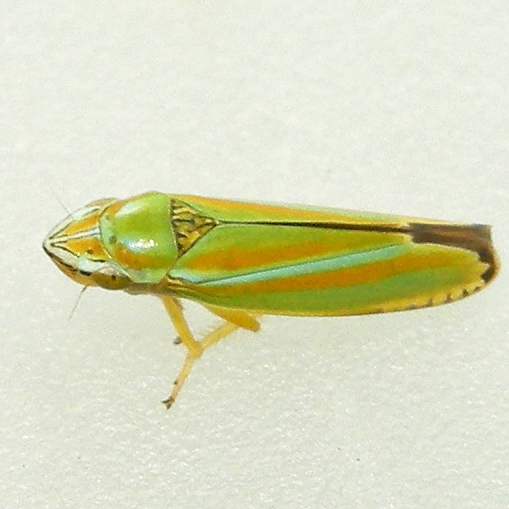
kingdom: Animalia
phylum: Arthropoda
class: Insecta
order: Hemiptera
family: Cicadellidae
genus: Graphocephala
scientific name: Graphocephala versuta
